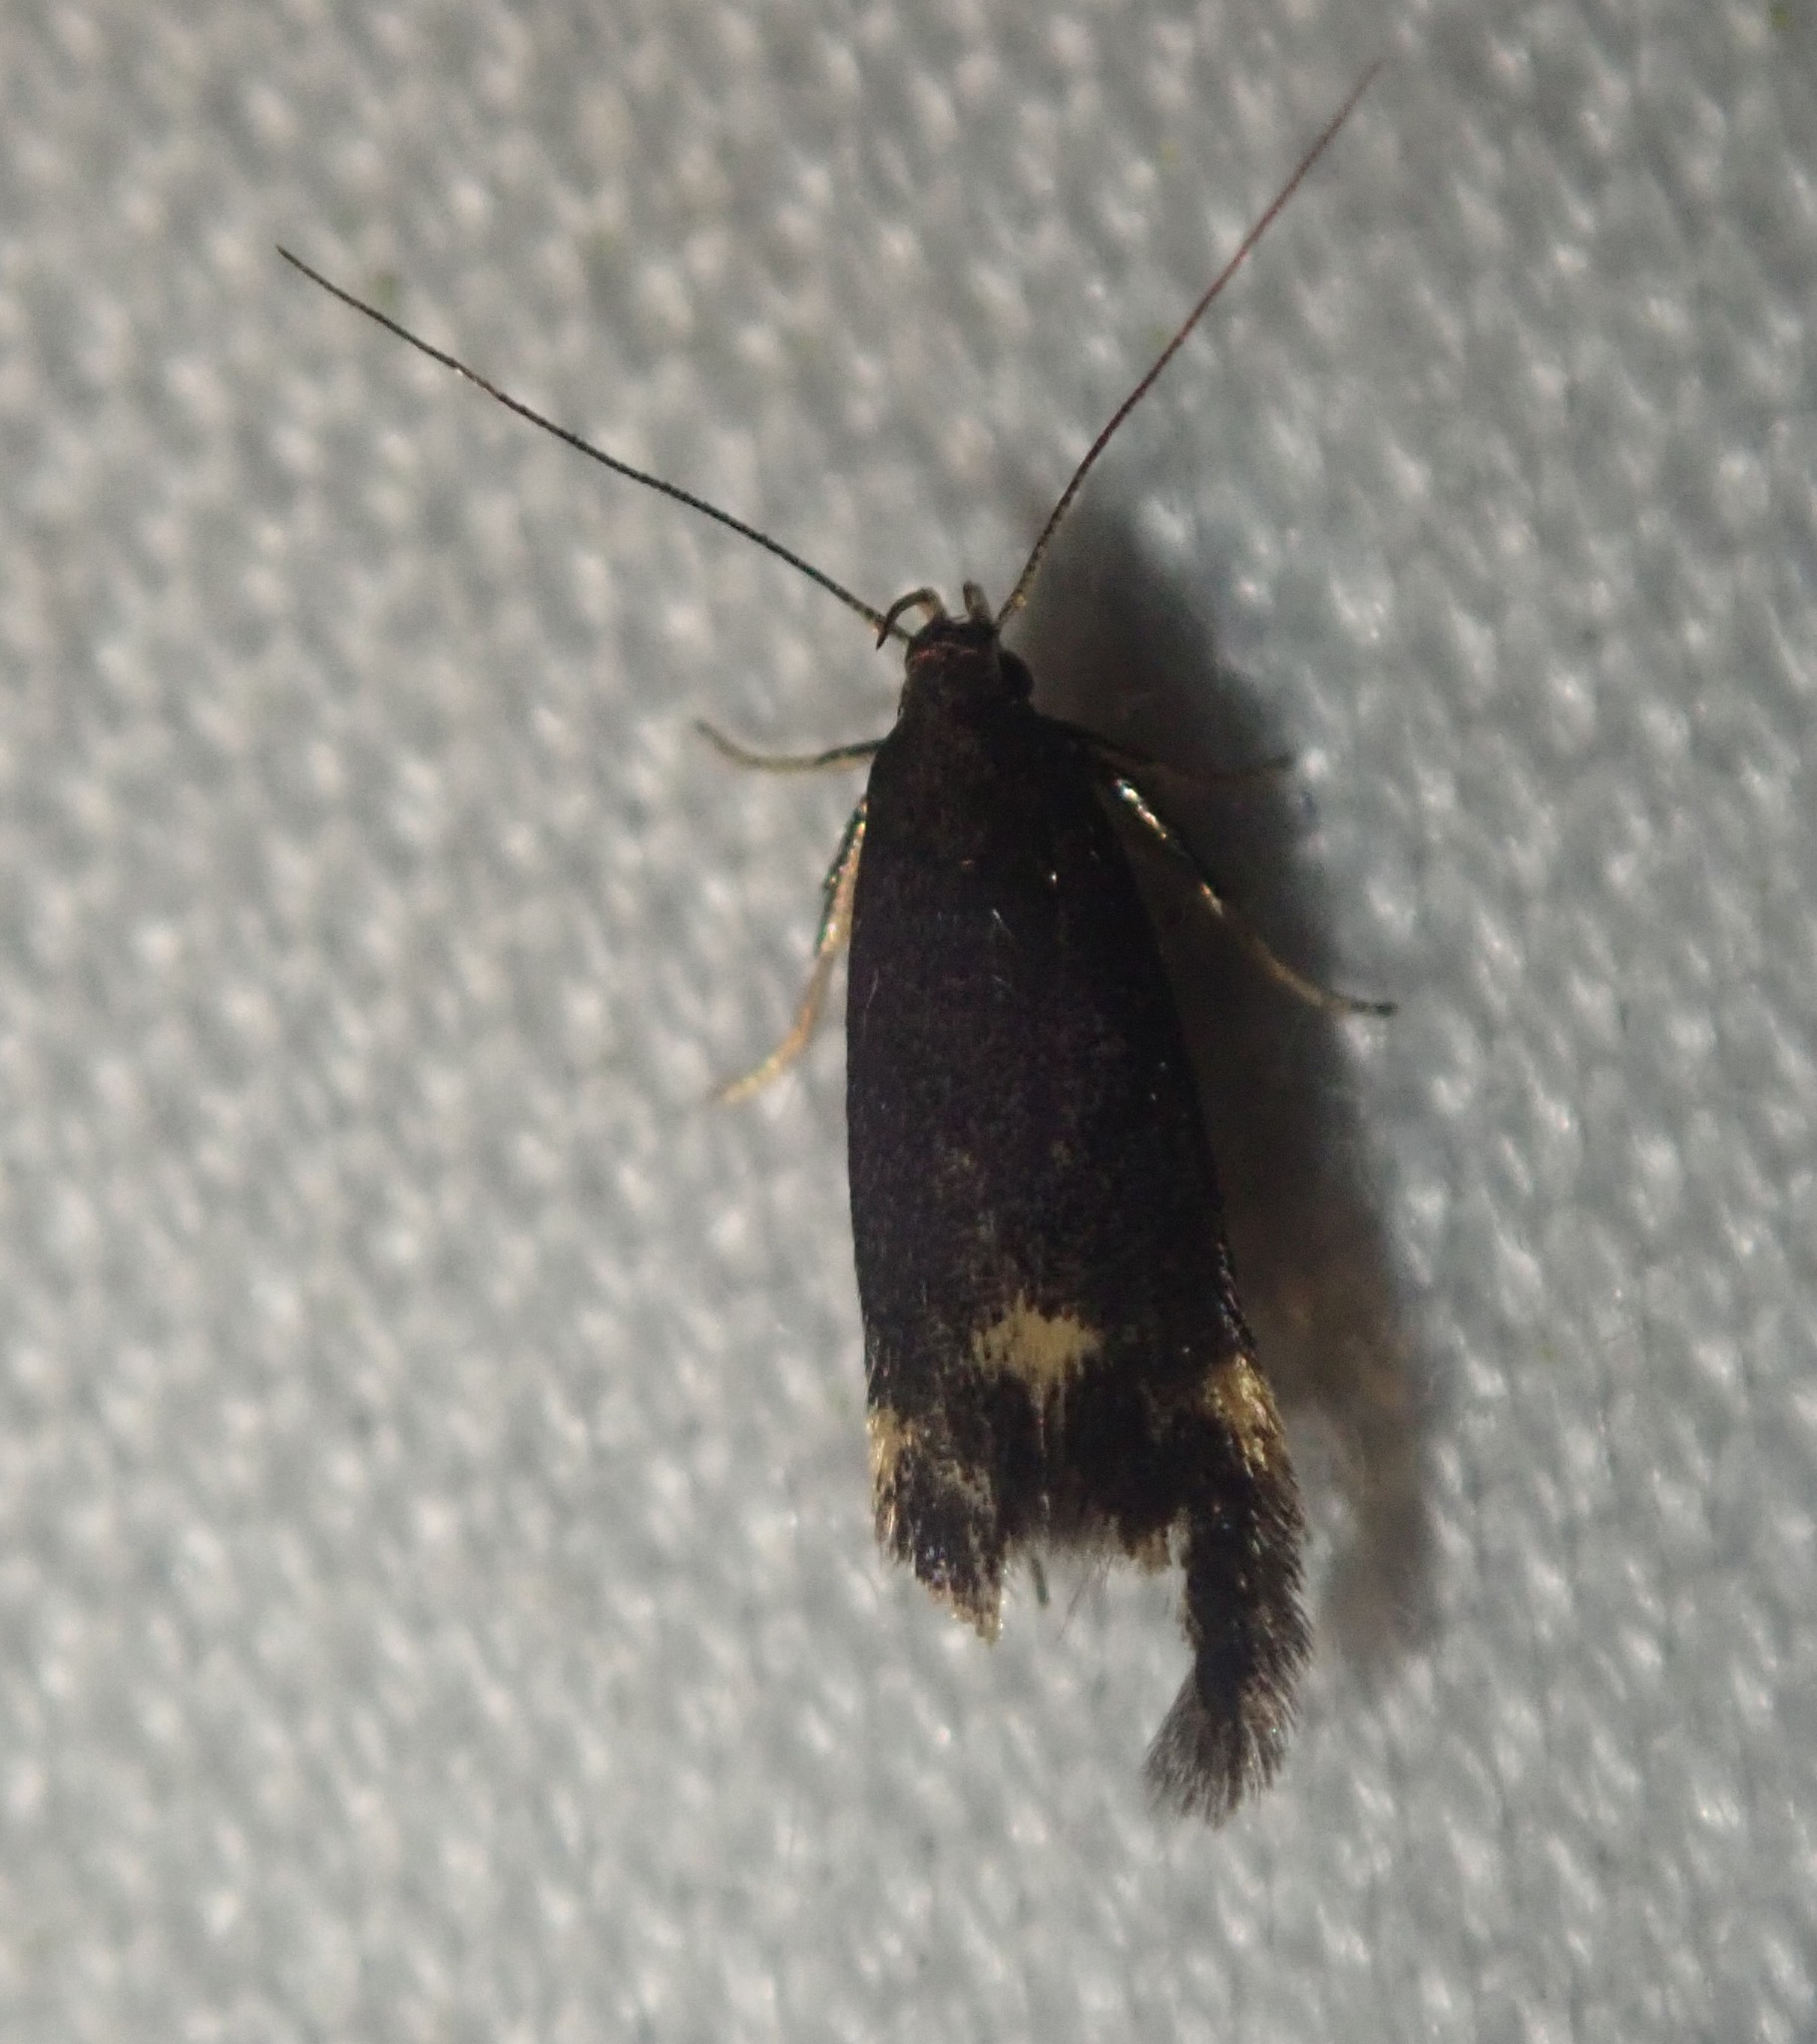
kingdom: Animalia
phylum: Arthropoda
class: Insecta
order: Lepidoptera
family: Gelechiidae
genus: Oxypteryx
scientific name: Oxypteryx atrella
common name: Two-spotted neb
